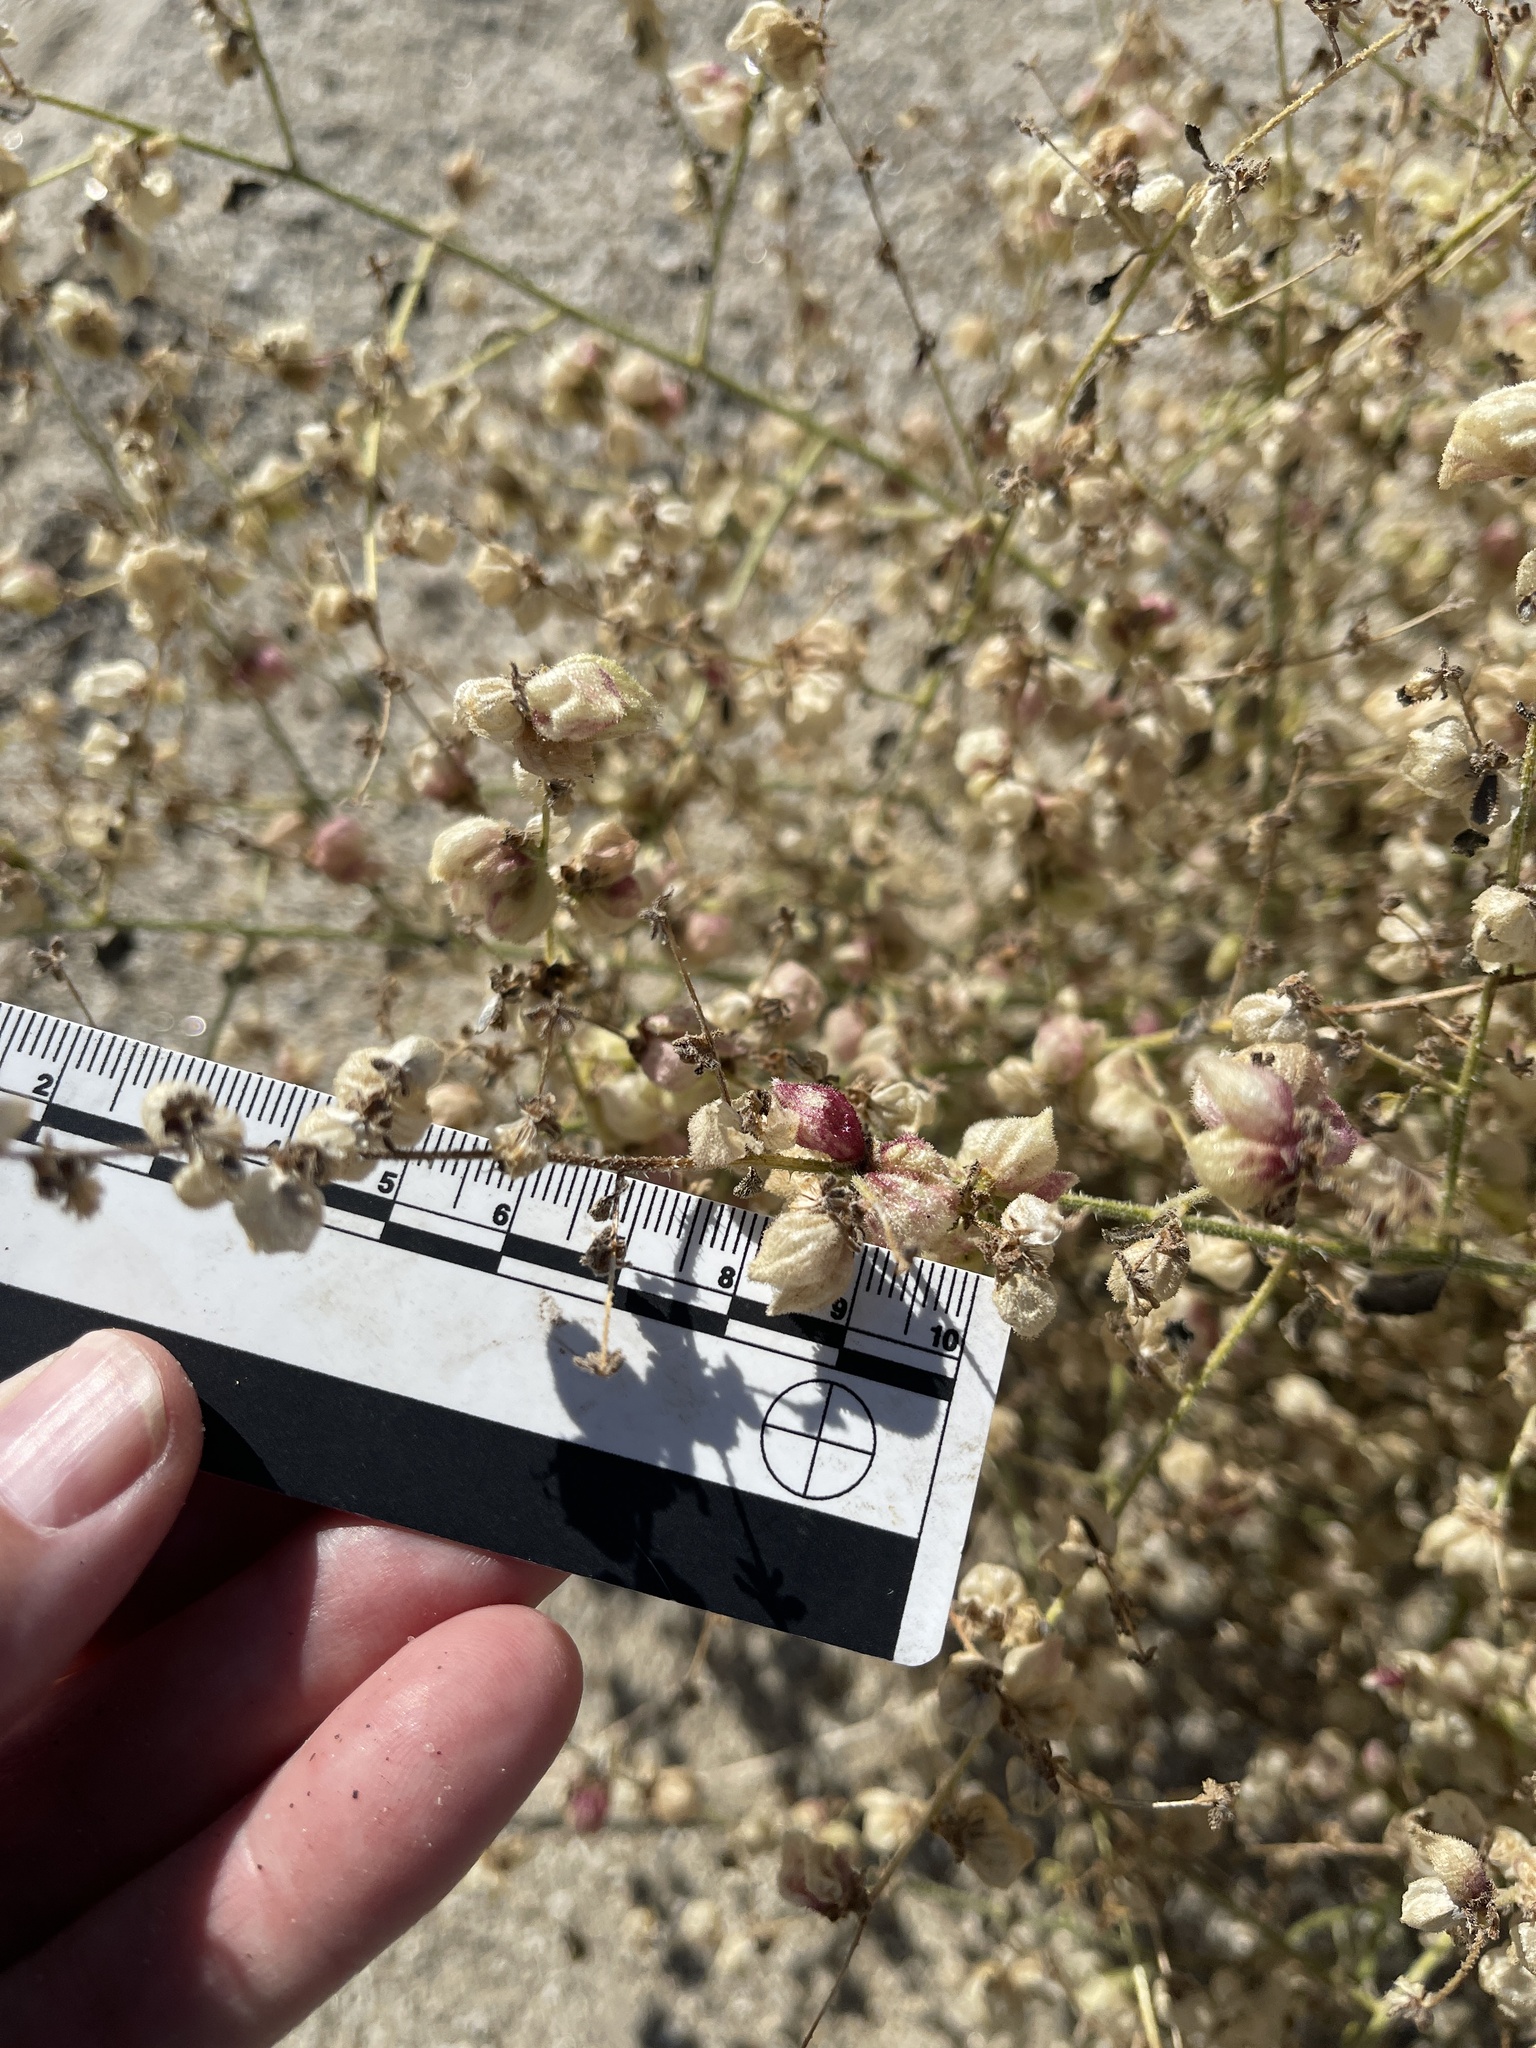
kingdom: Plantae
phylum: Tracheophyta
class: Magnoliopsida
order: Asterales
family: Asteraceae
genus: Dicoria
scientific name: Dicoria canescens
